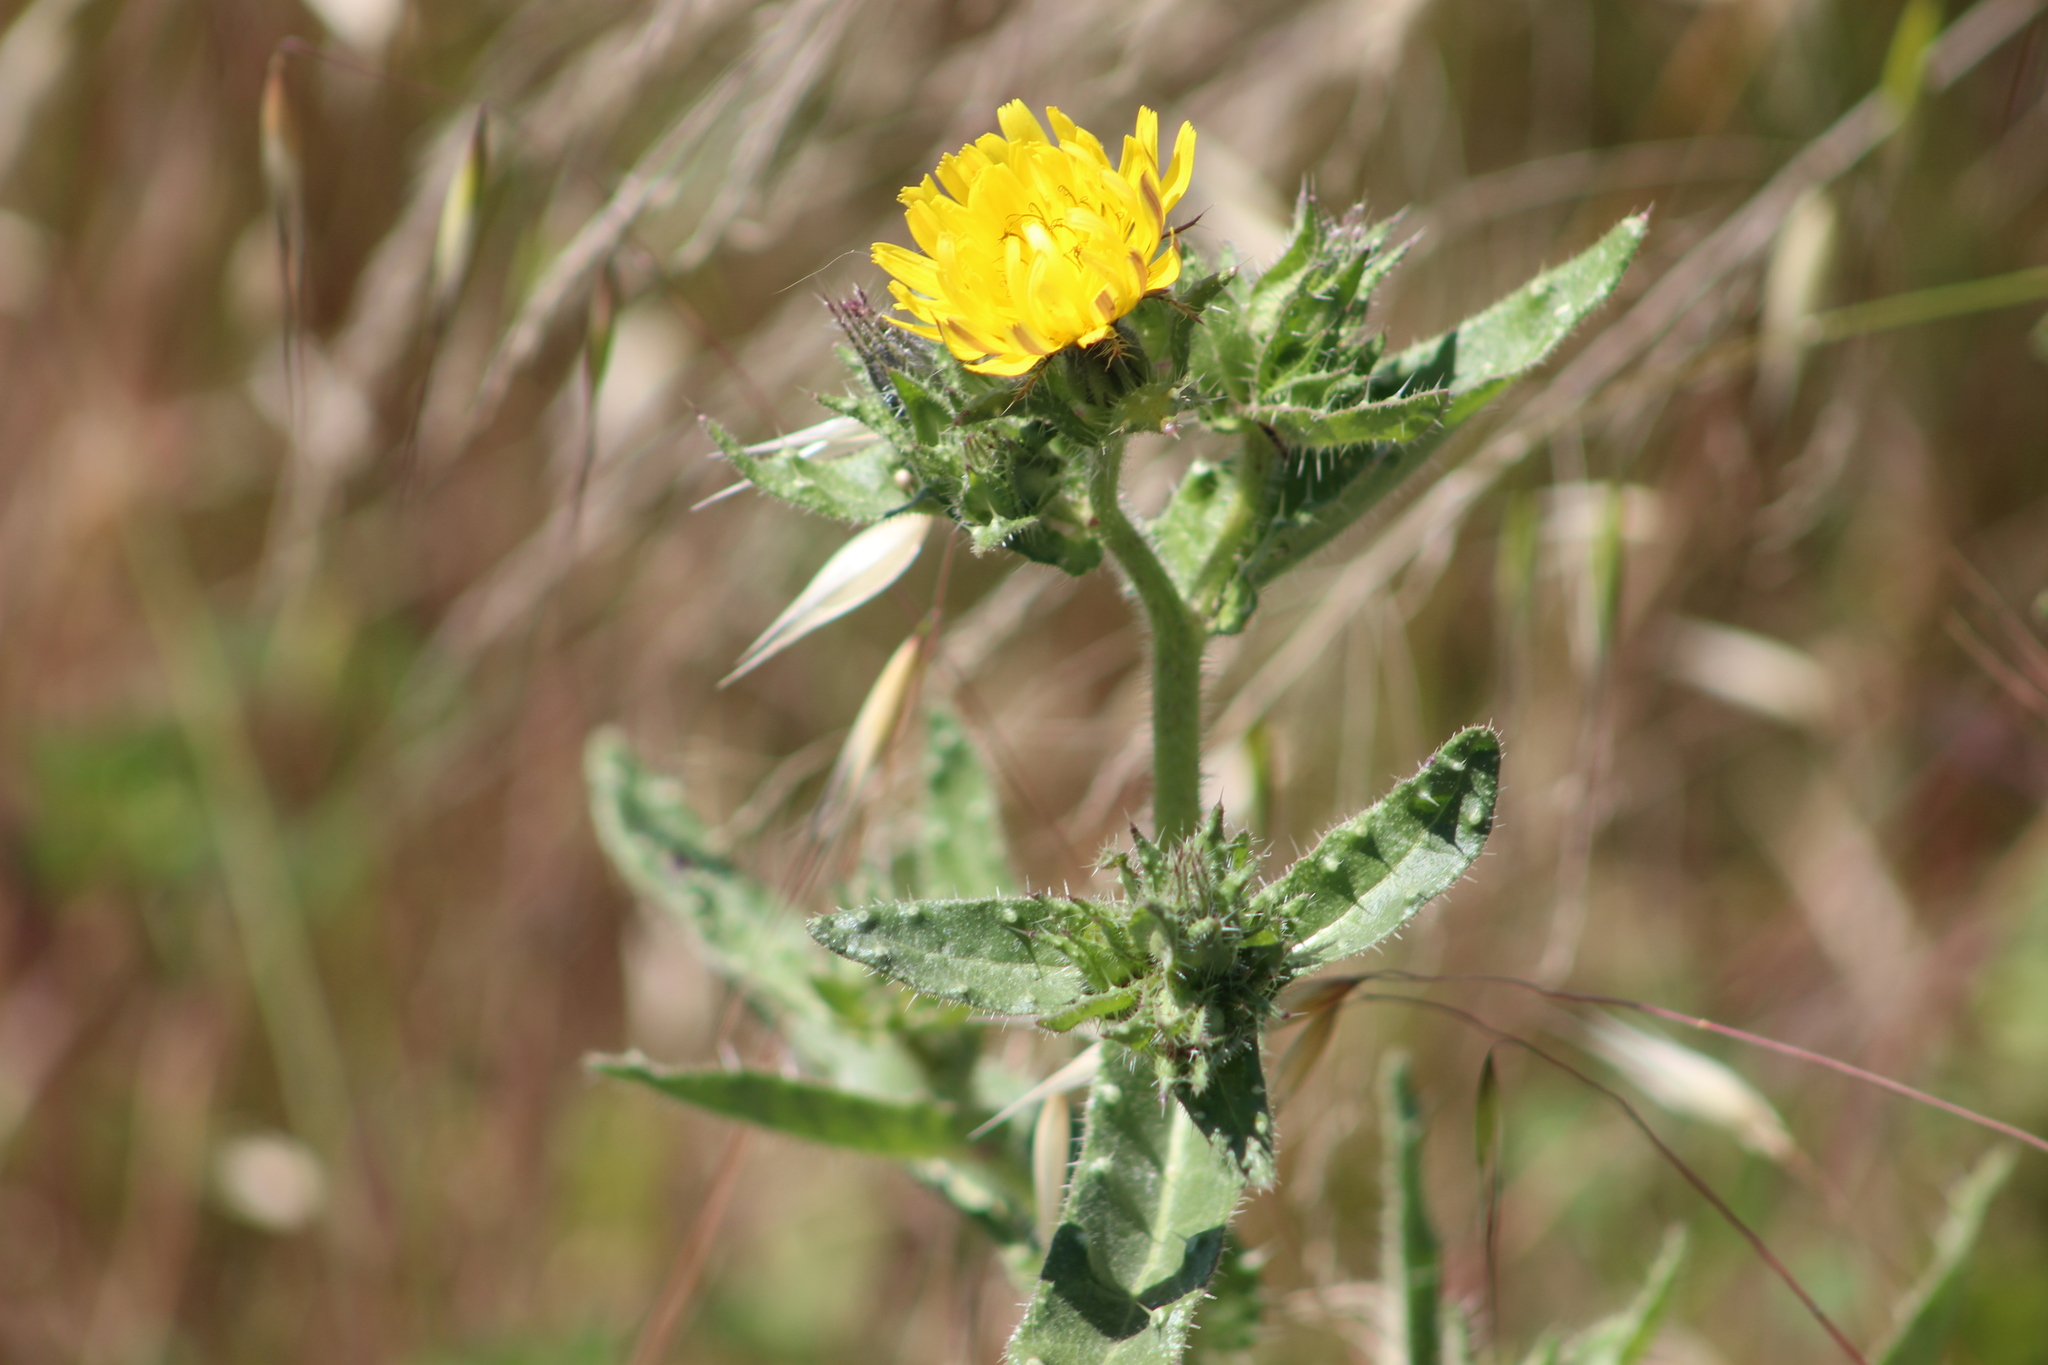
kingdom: Plantae
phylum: Tracheophyta
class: Magnoliopsida
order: Asterales
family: Asteraceae
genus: Helminthotheca
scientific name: Helminthotheca echioides
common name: Ox-tongue
